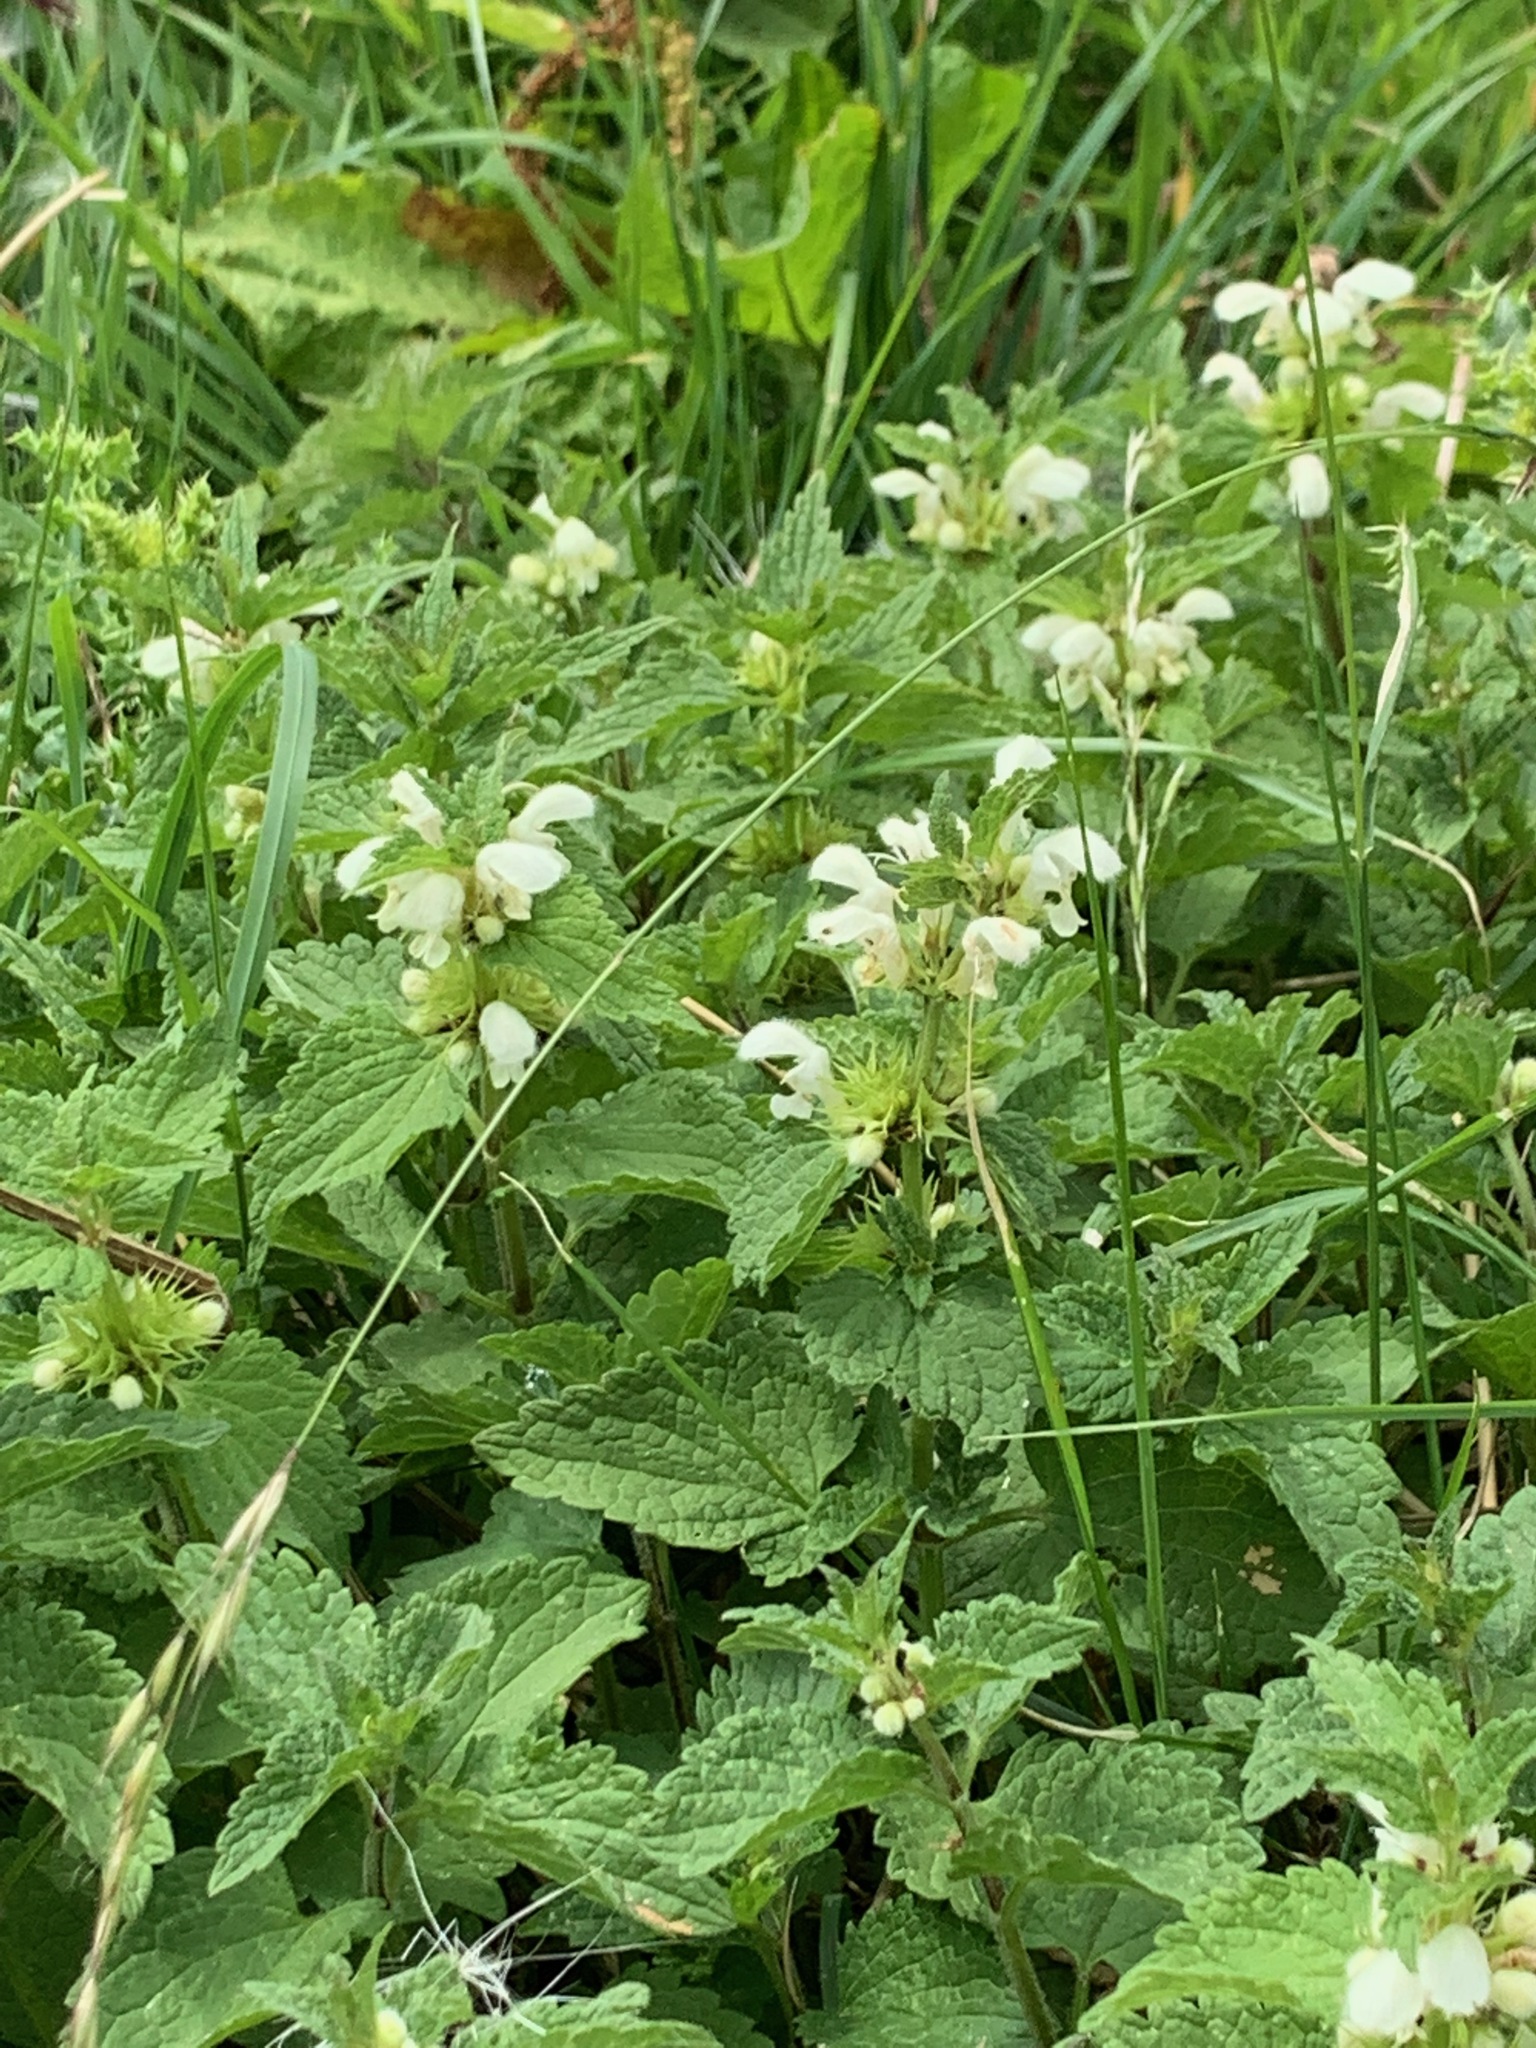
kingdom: Plantae
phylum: Tracheophyta
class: Magnoliopsida
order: Lamiales
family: Lamiaceae
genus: Lamium
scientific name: Lamium album
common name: White dead-nettle
